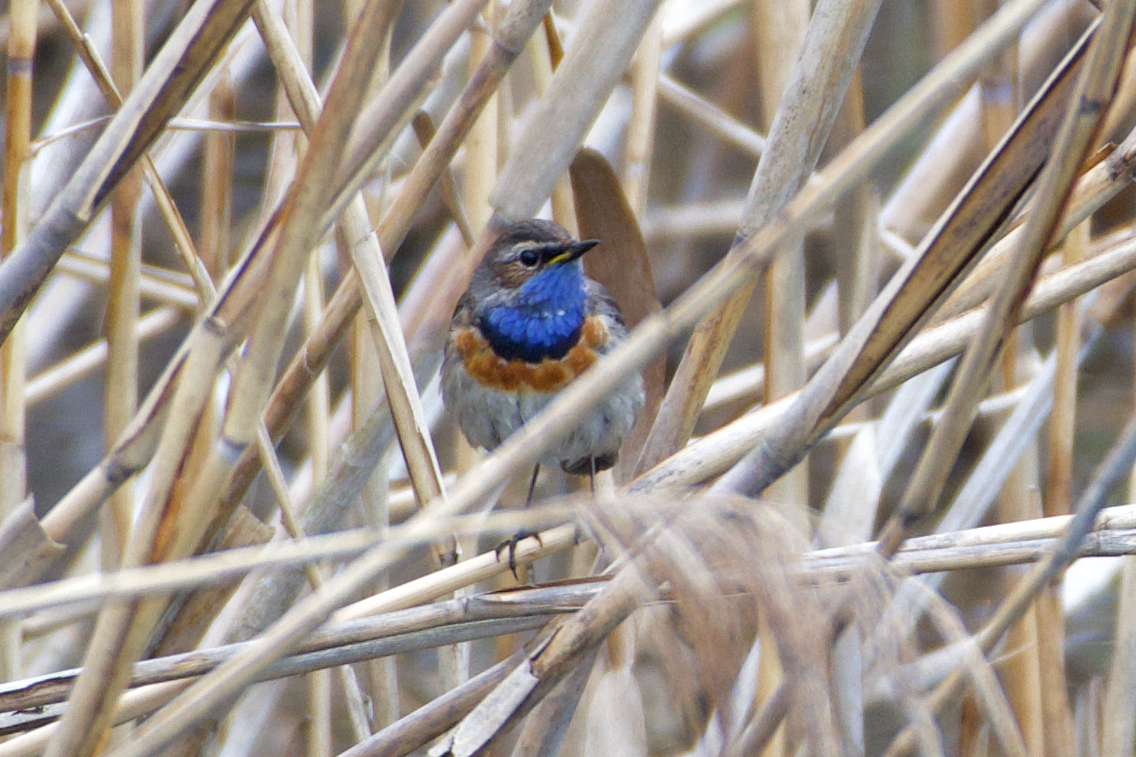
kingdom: Animalia
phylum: Chordata
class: Aves
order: Passeriformes
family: Muscicapidae
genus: Luscinia
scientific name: Luscinia svecica
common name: Bluethroat
